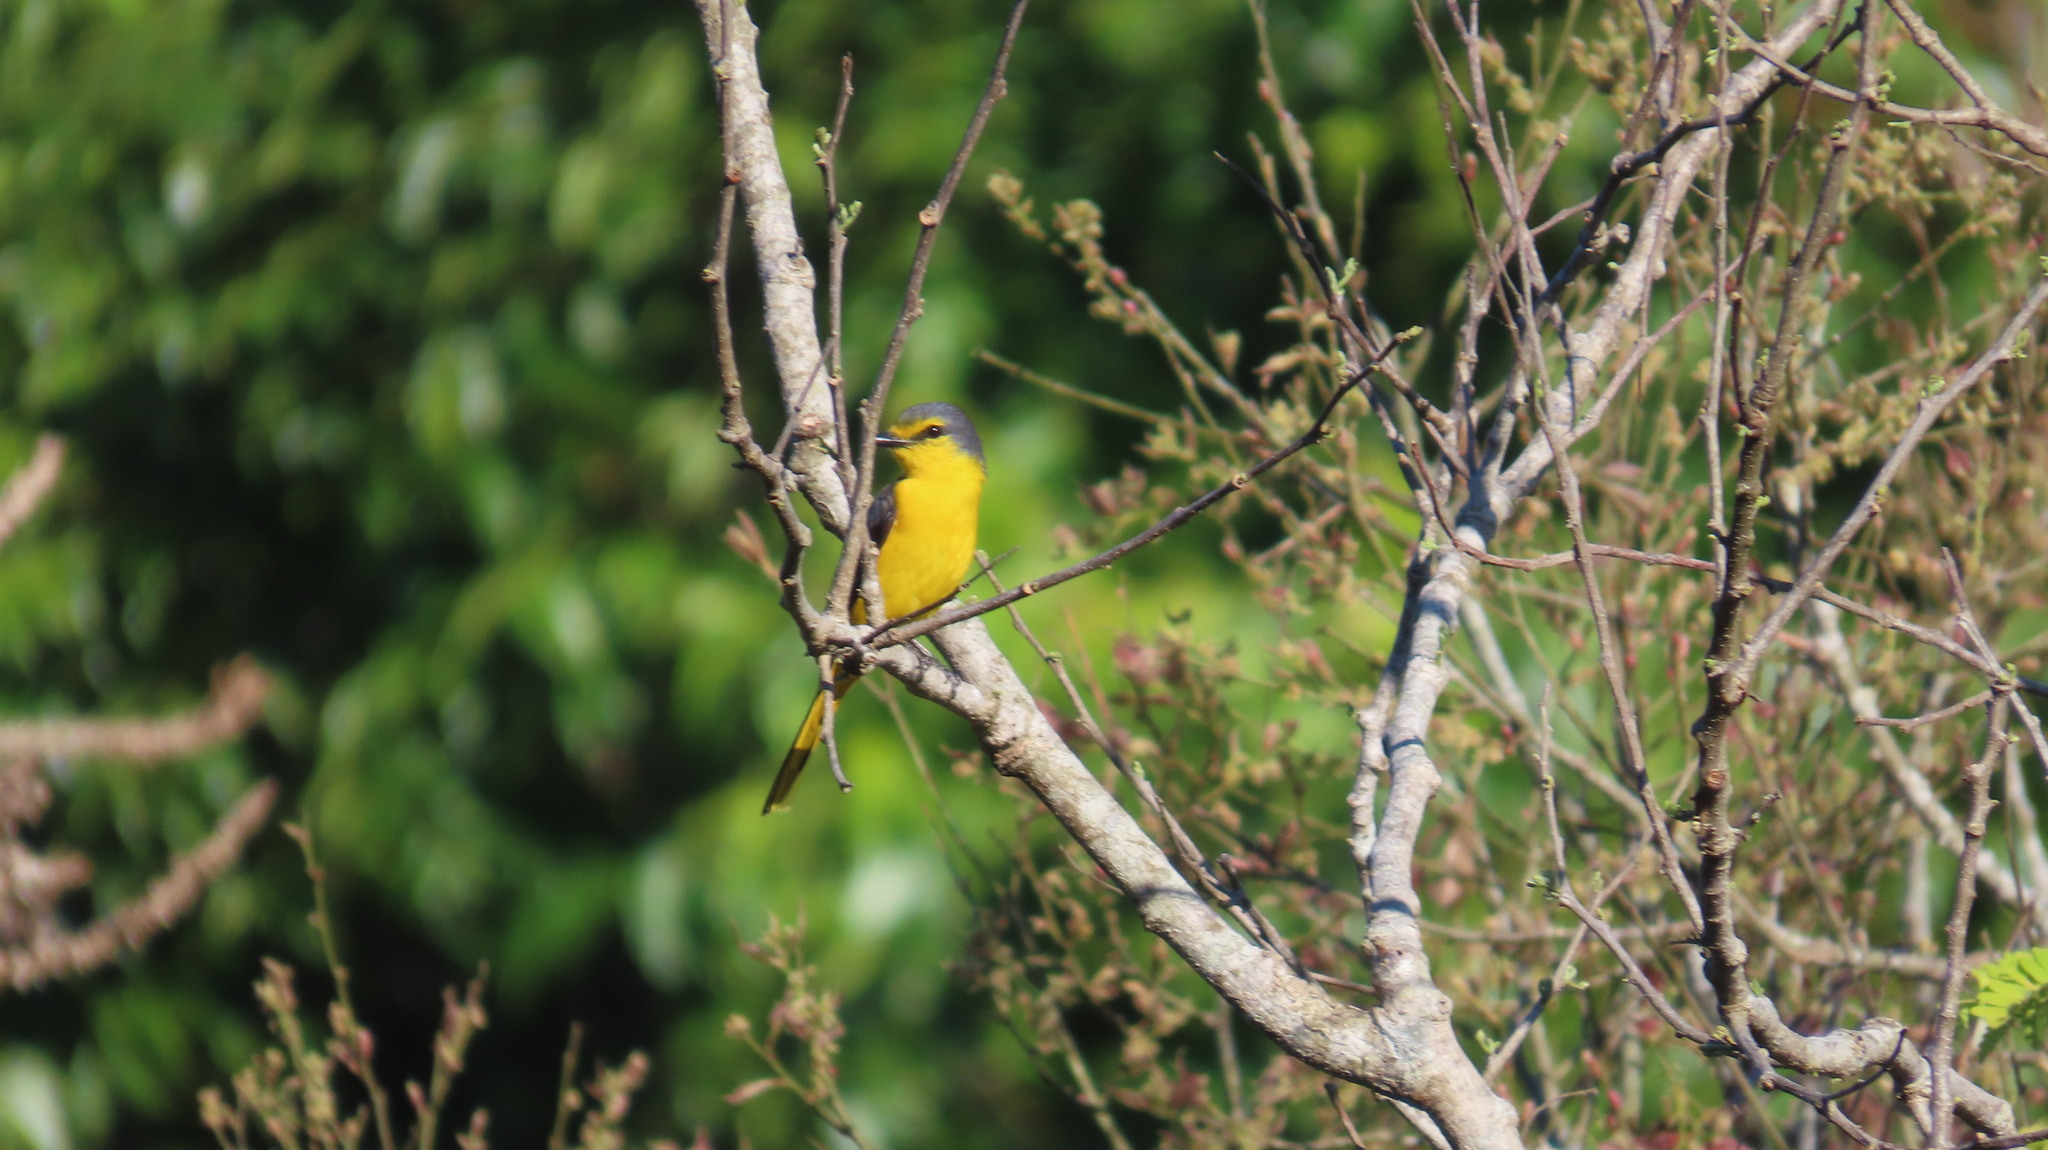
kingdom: Animalia
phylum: Chordata
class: Aves
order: Passeriformes
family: Campephagidae
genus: Pericrocotus
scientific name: Pericrocotus flammeus
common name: Orange minivet
